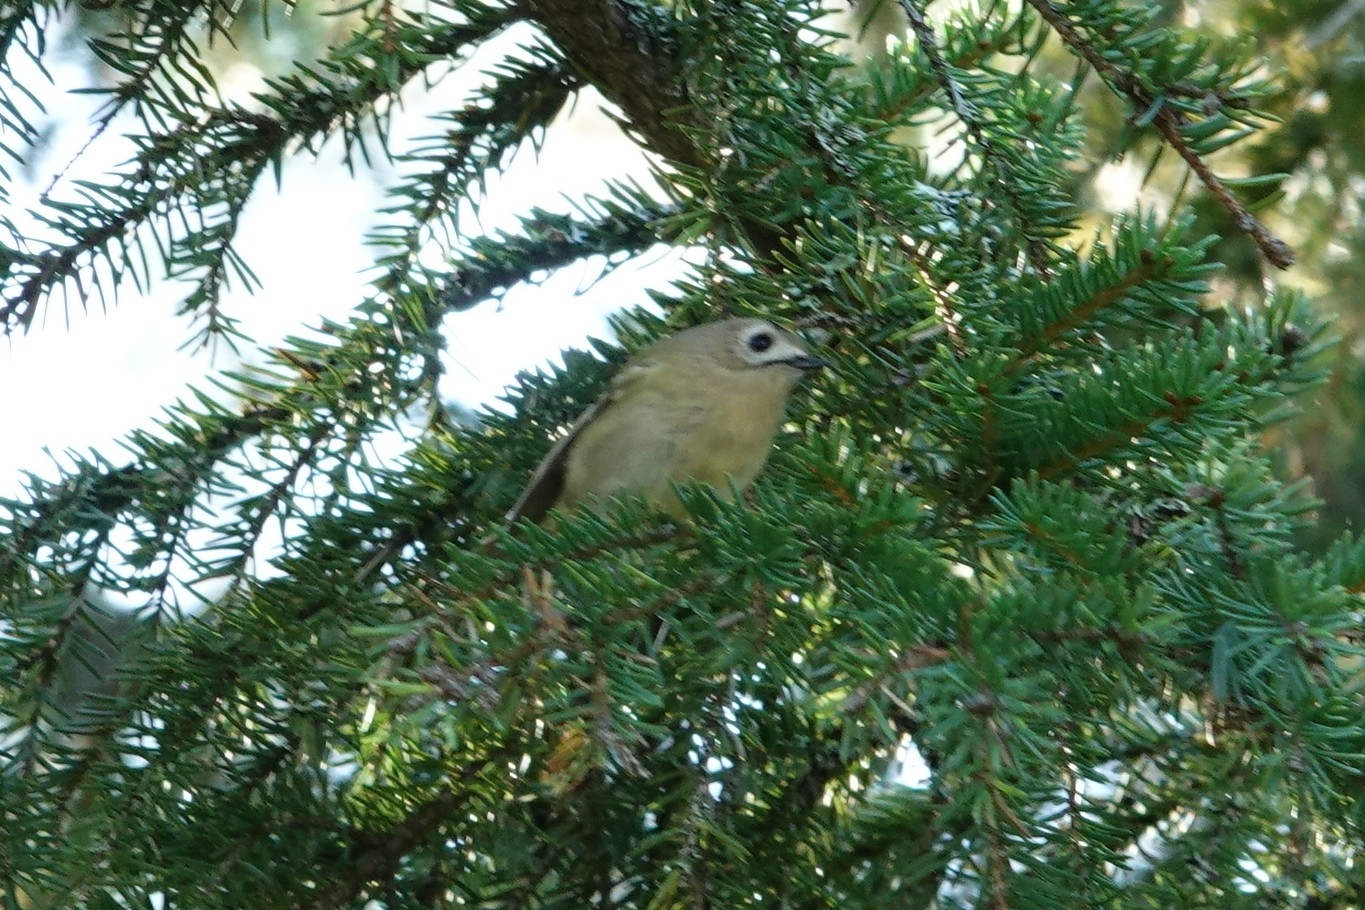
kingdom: Animalia
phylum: Chordata
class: Aves
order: Passeriformes
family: Regulidae
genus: Regulus
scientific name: Regulus regulus
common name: Goldcrest
